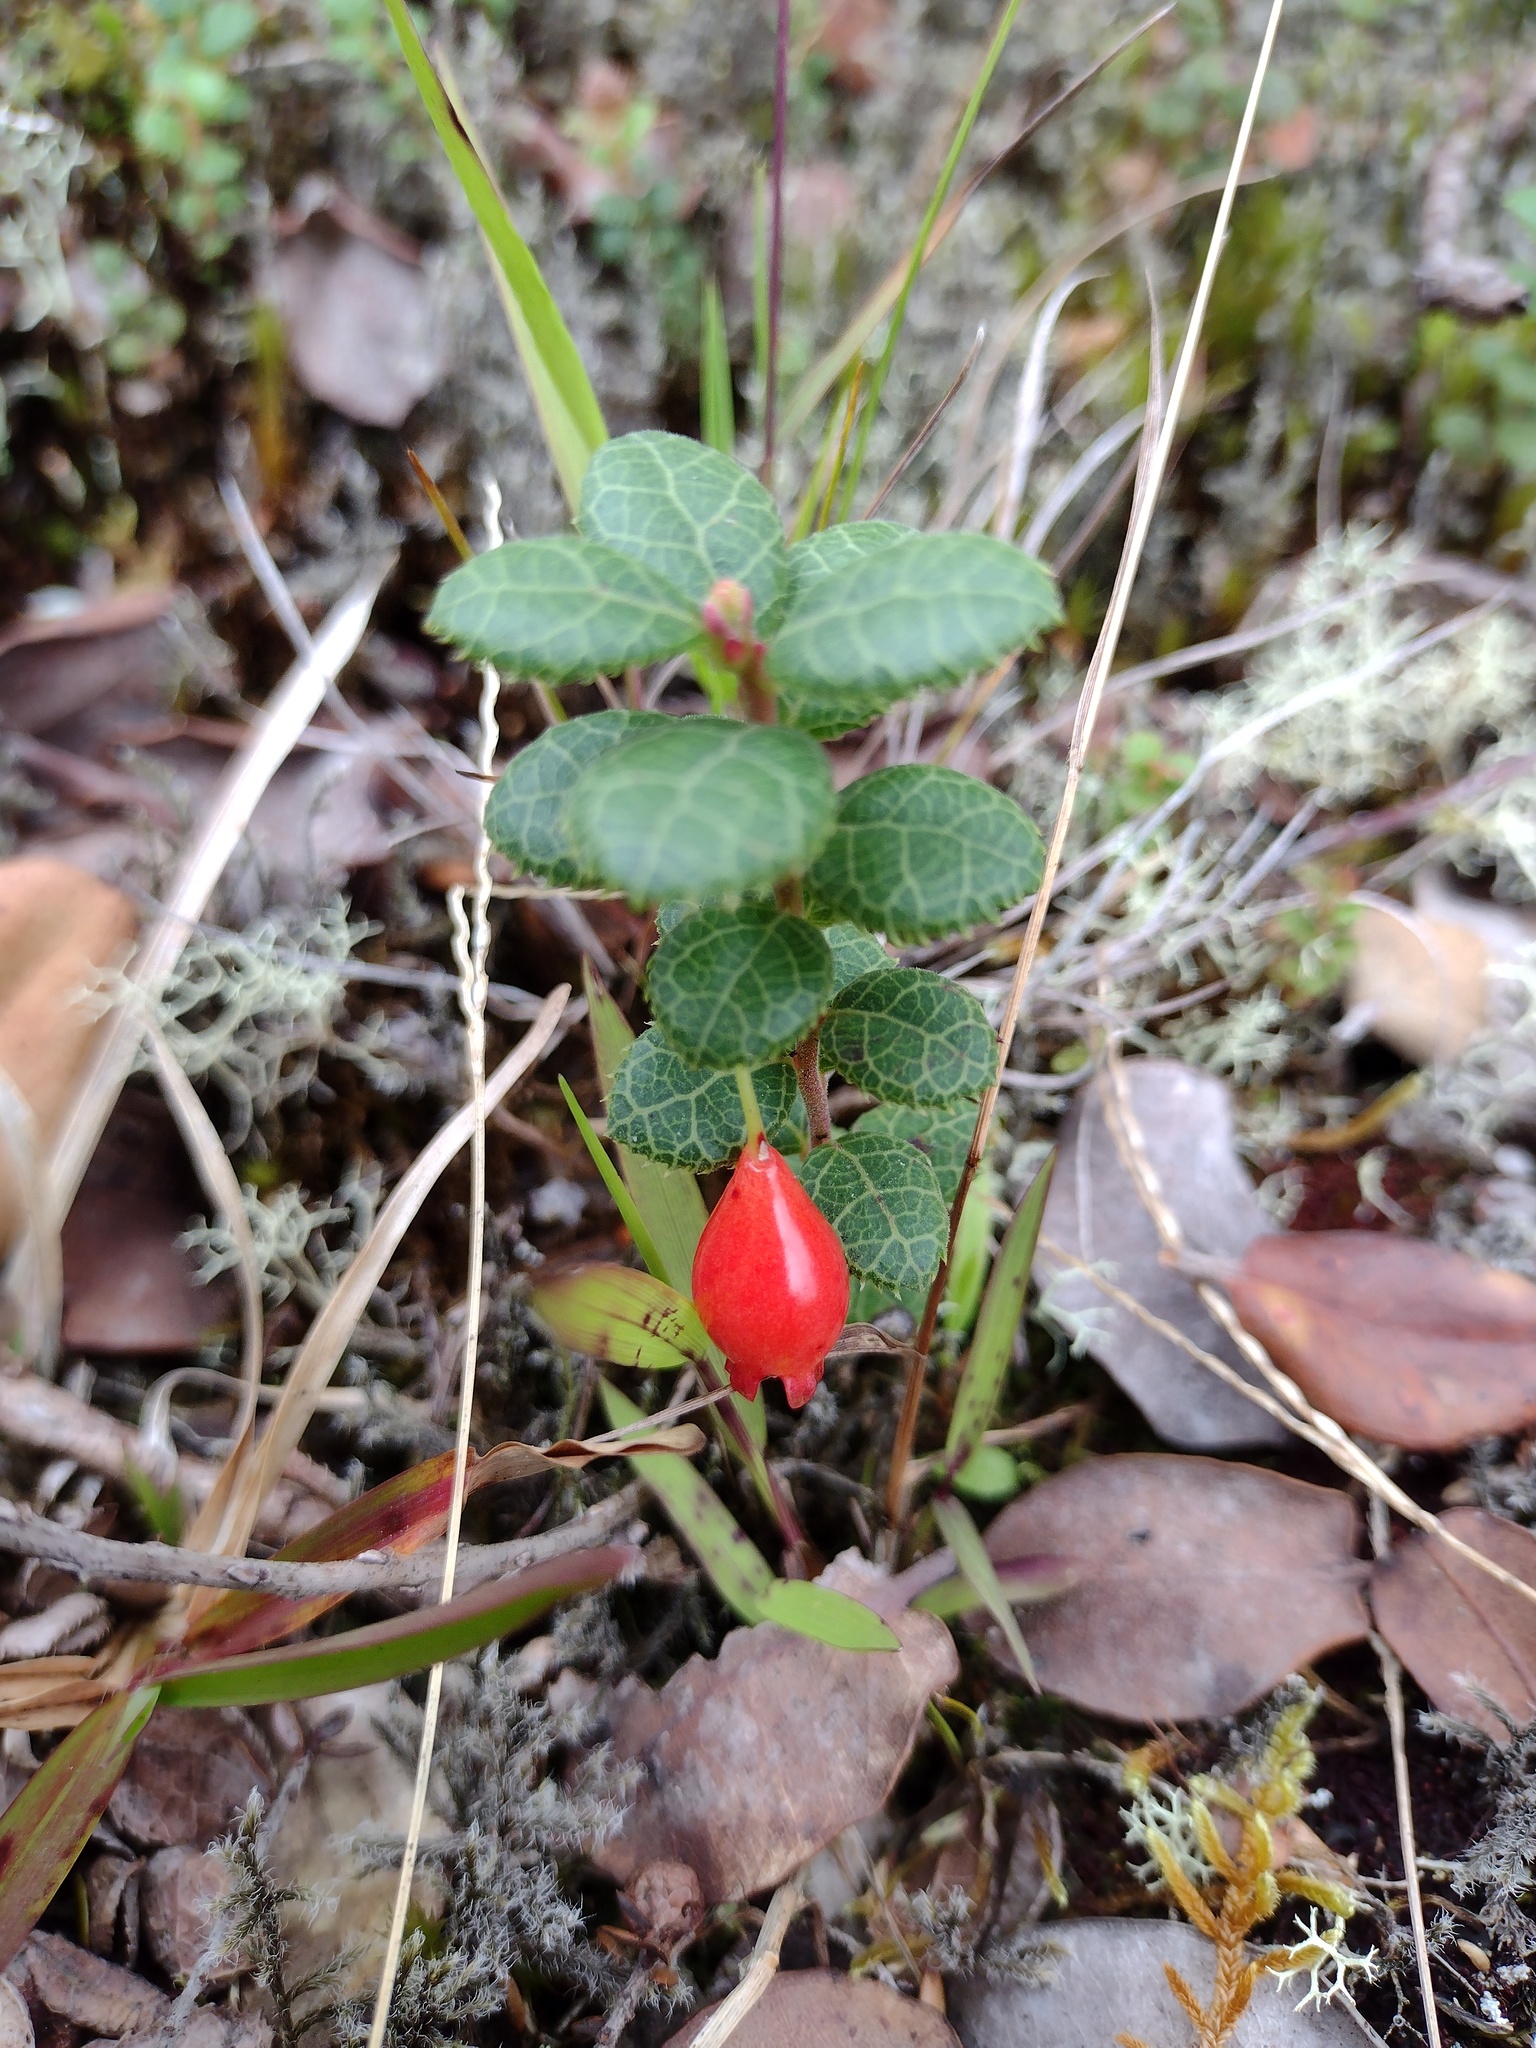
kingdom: Plantae
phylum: Tracheophyta
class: Magnoliopsida
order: Ericales
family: Ericaceae
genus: Vaccinium
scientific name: Vaccinium reticulatum
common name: Ohelo
